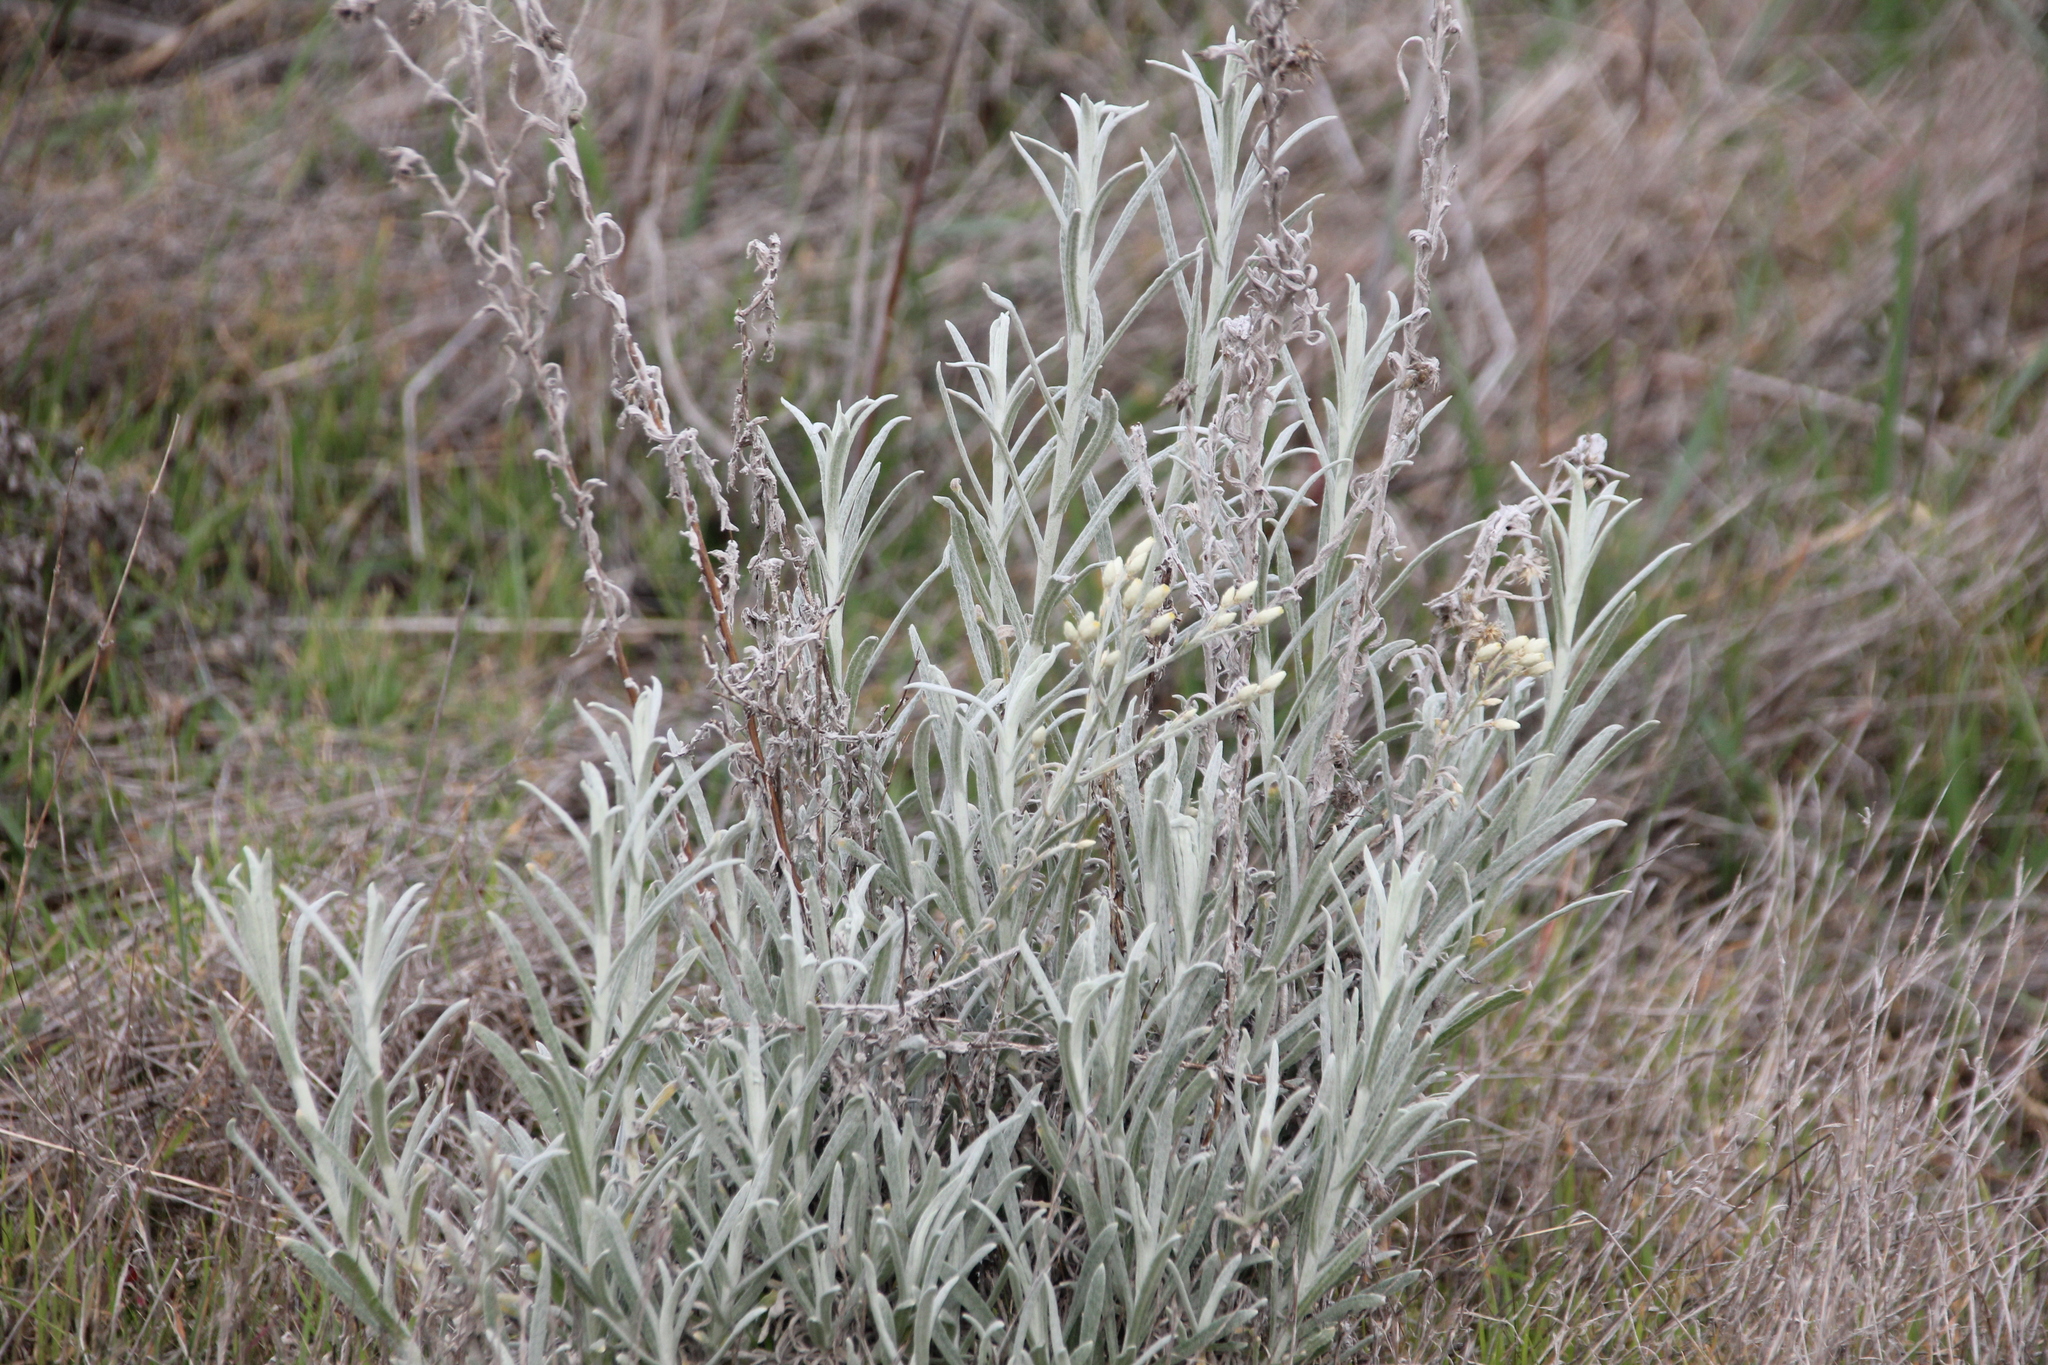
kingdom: Plantae
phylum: Tracheophyta
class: Magnoliopsida
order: Asterales
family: Asteraceae
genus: Pseudognaphalium
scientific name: Pseudognaphalium beneolens
